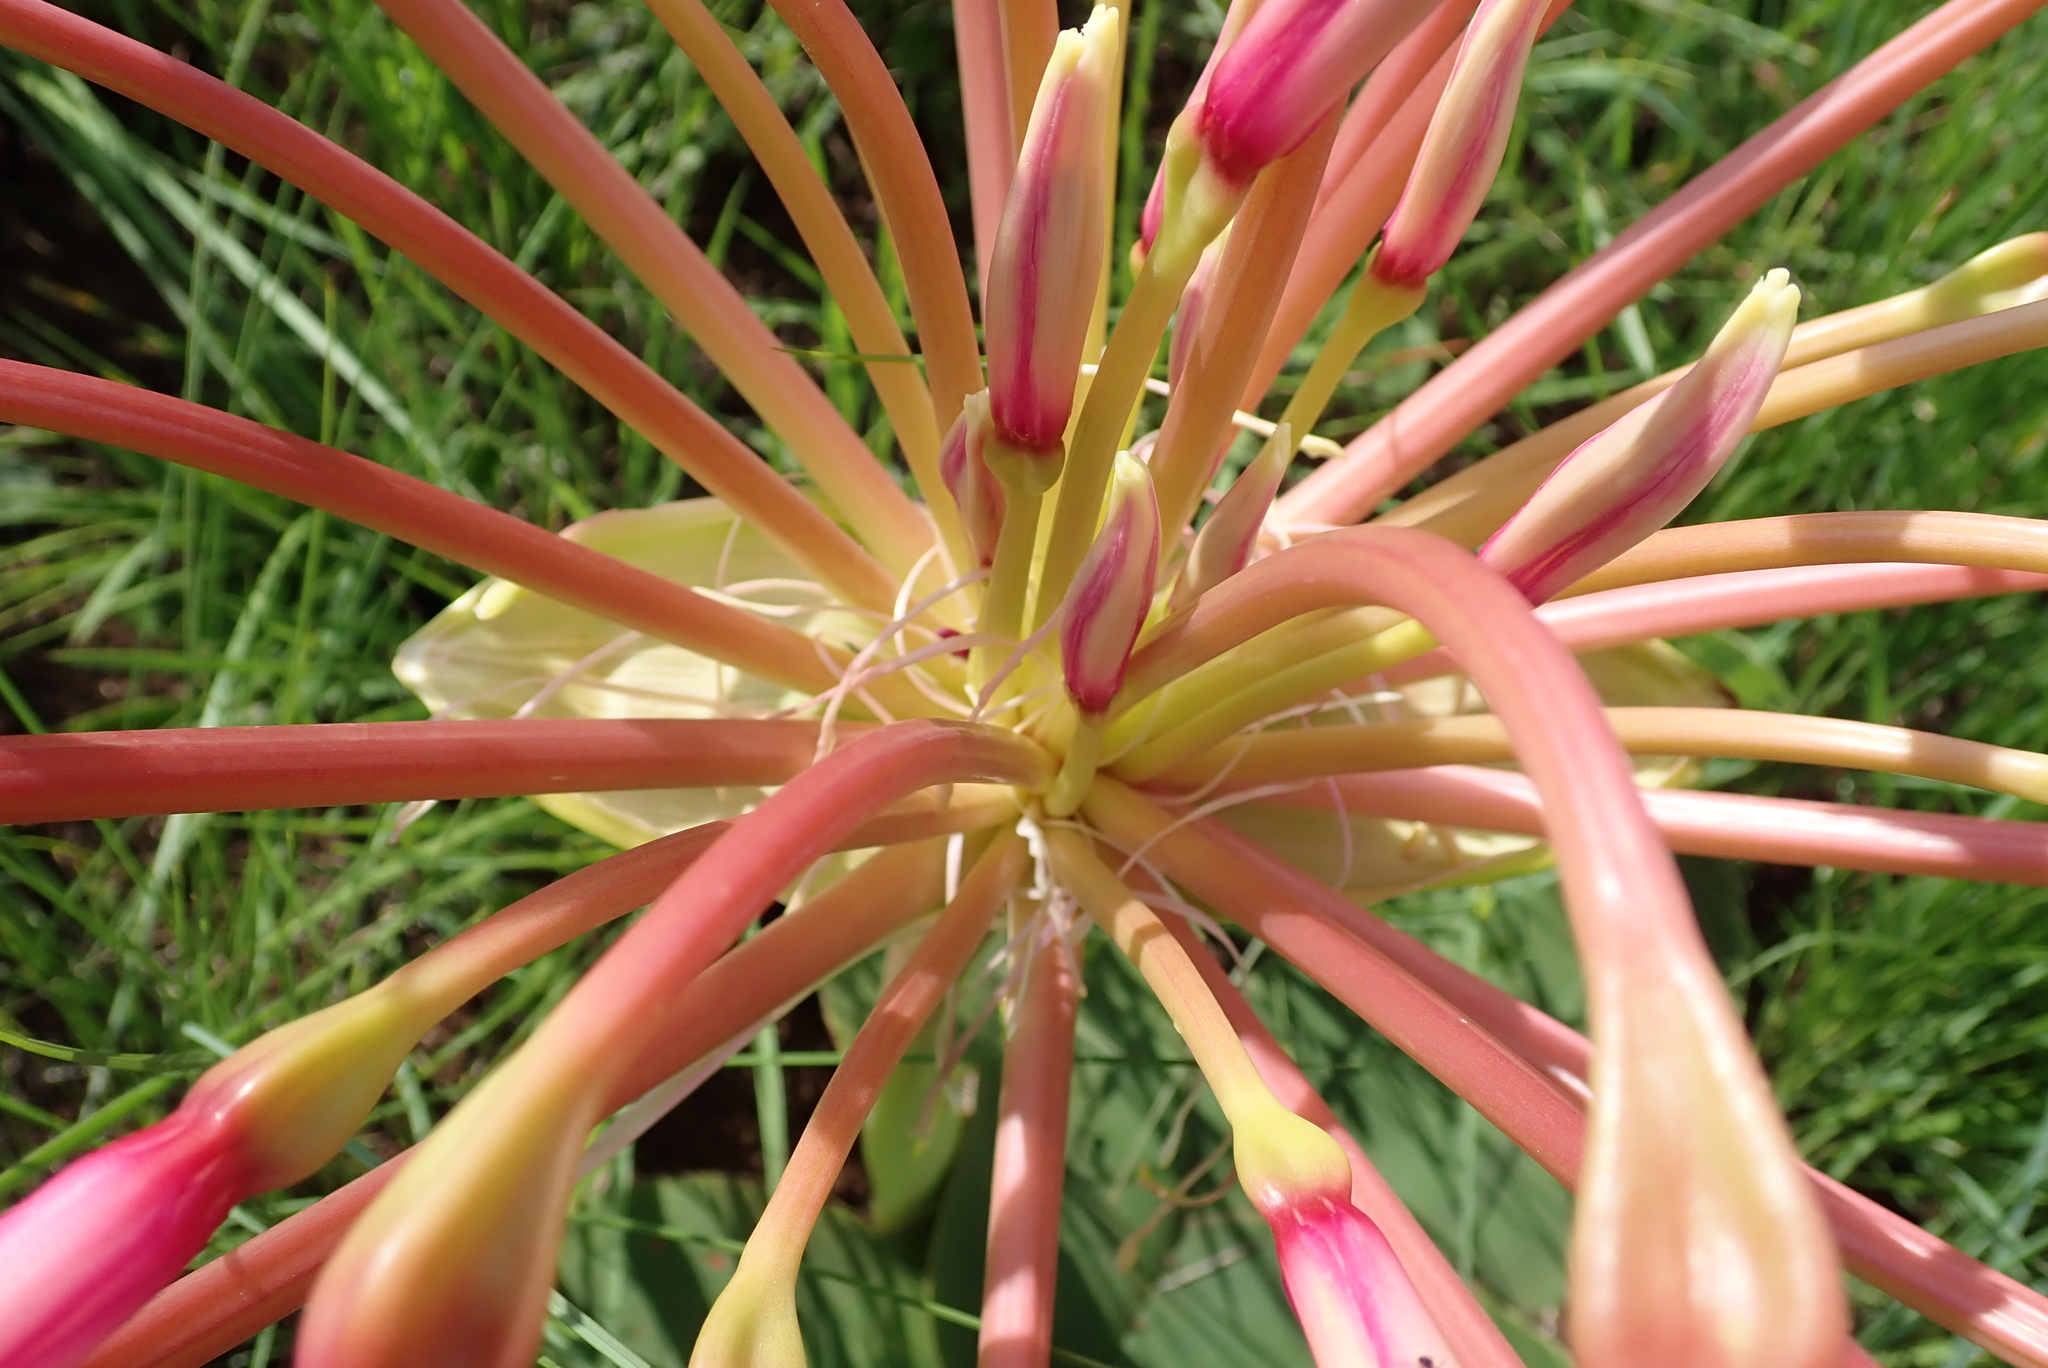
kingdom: Plantae
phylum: Tracheophyta
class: Liliopsida
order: Asparagales
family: Amaryllidaceae
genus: Brunsvigia
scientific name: Brunsvigia radulosa
